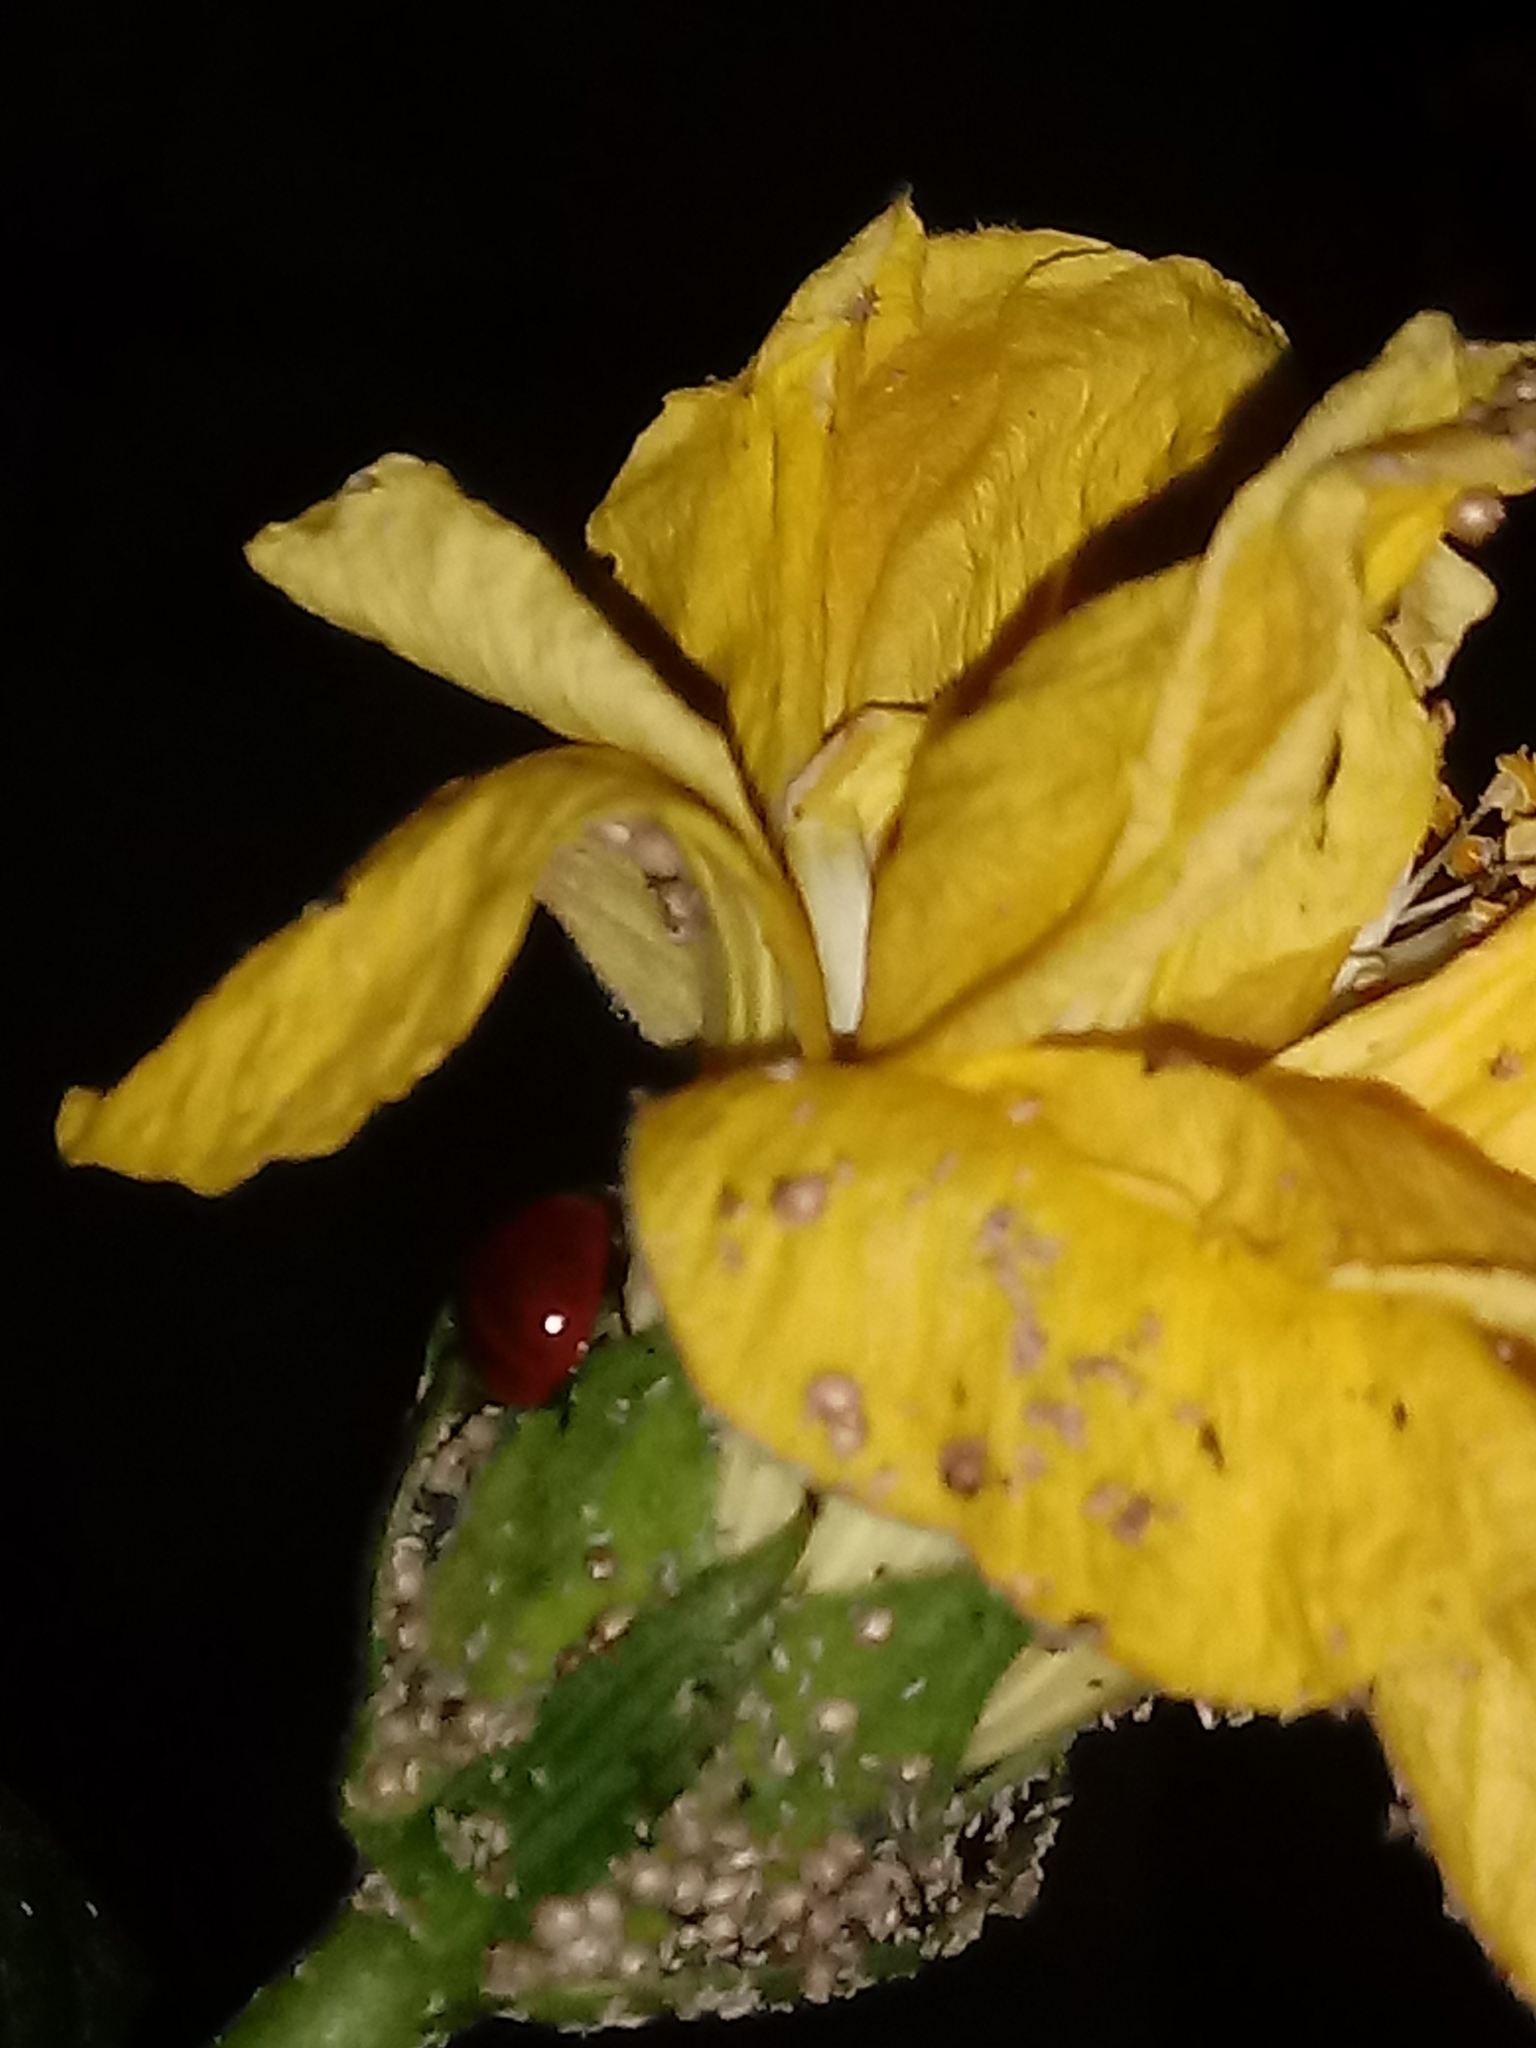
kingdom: Animalia
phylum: Arthropoda
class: Insecta
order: Coleoptera
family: Coccinellidae
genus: Cycloneda
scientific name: Cycloneda sanguinea
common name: Ladybird beetle
